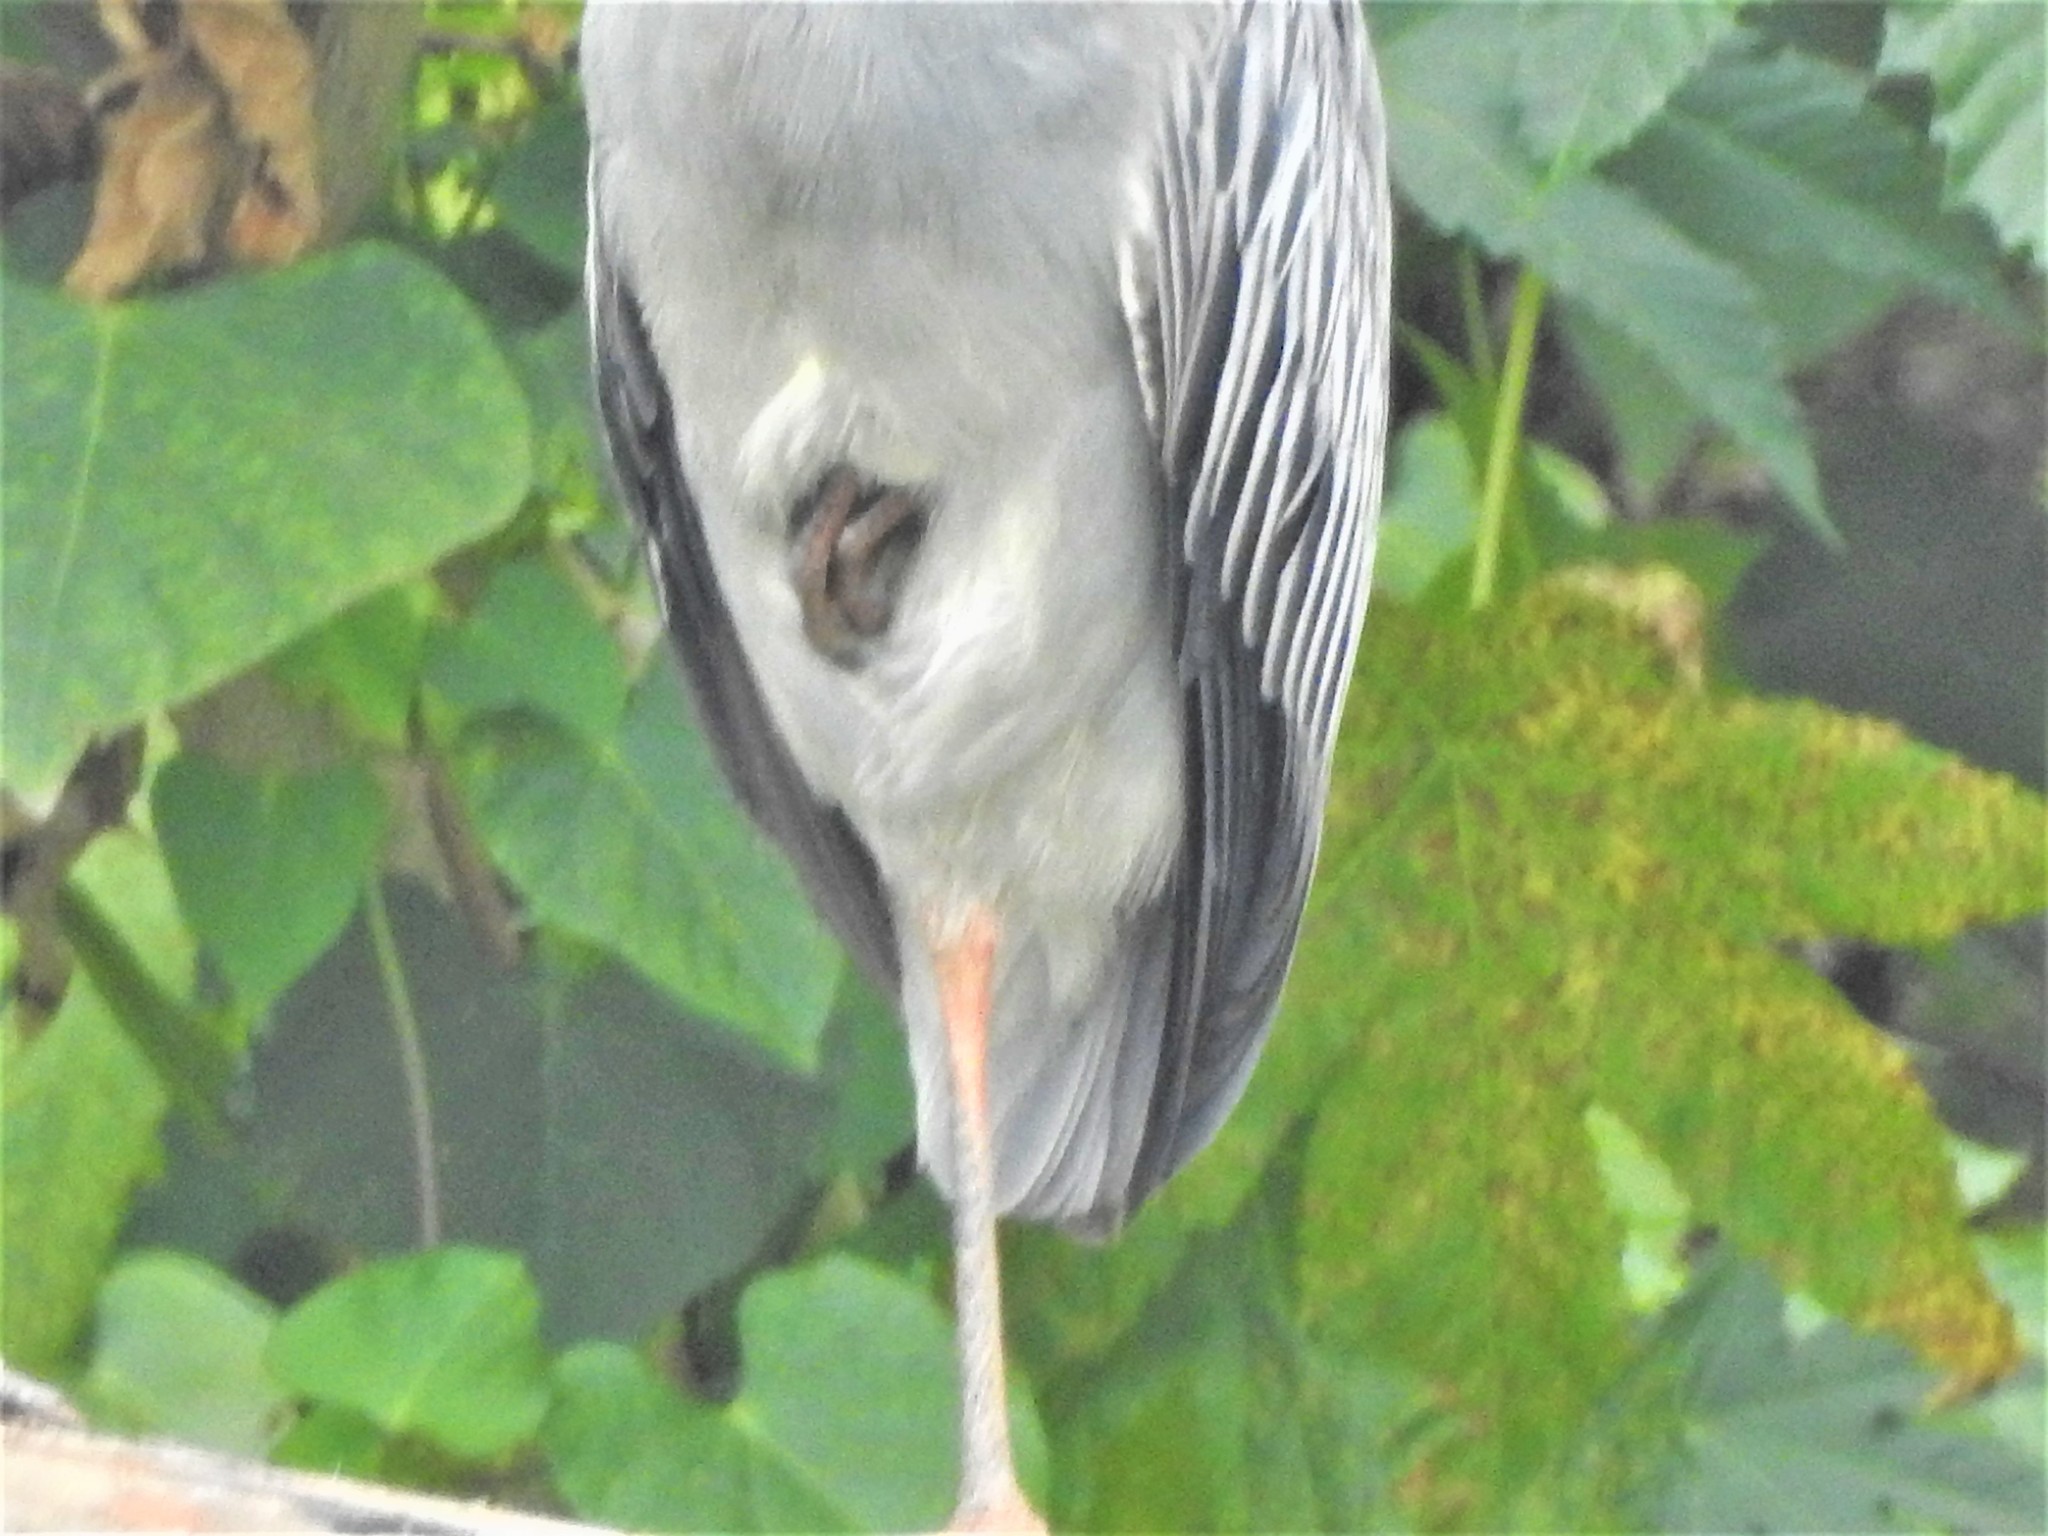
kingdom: Animalia
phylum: Chordata
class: Aves
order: Pelecaniformes
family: Ardeidae
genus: Nyctanassa
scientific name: Nyctanassa violacea
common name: Yellow-crowned night heron
